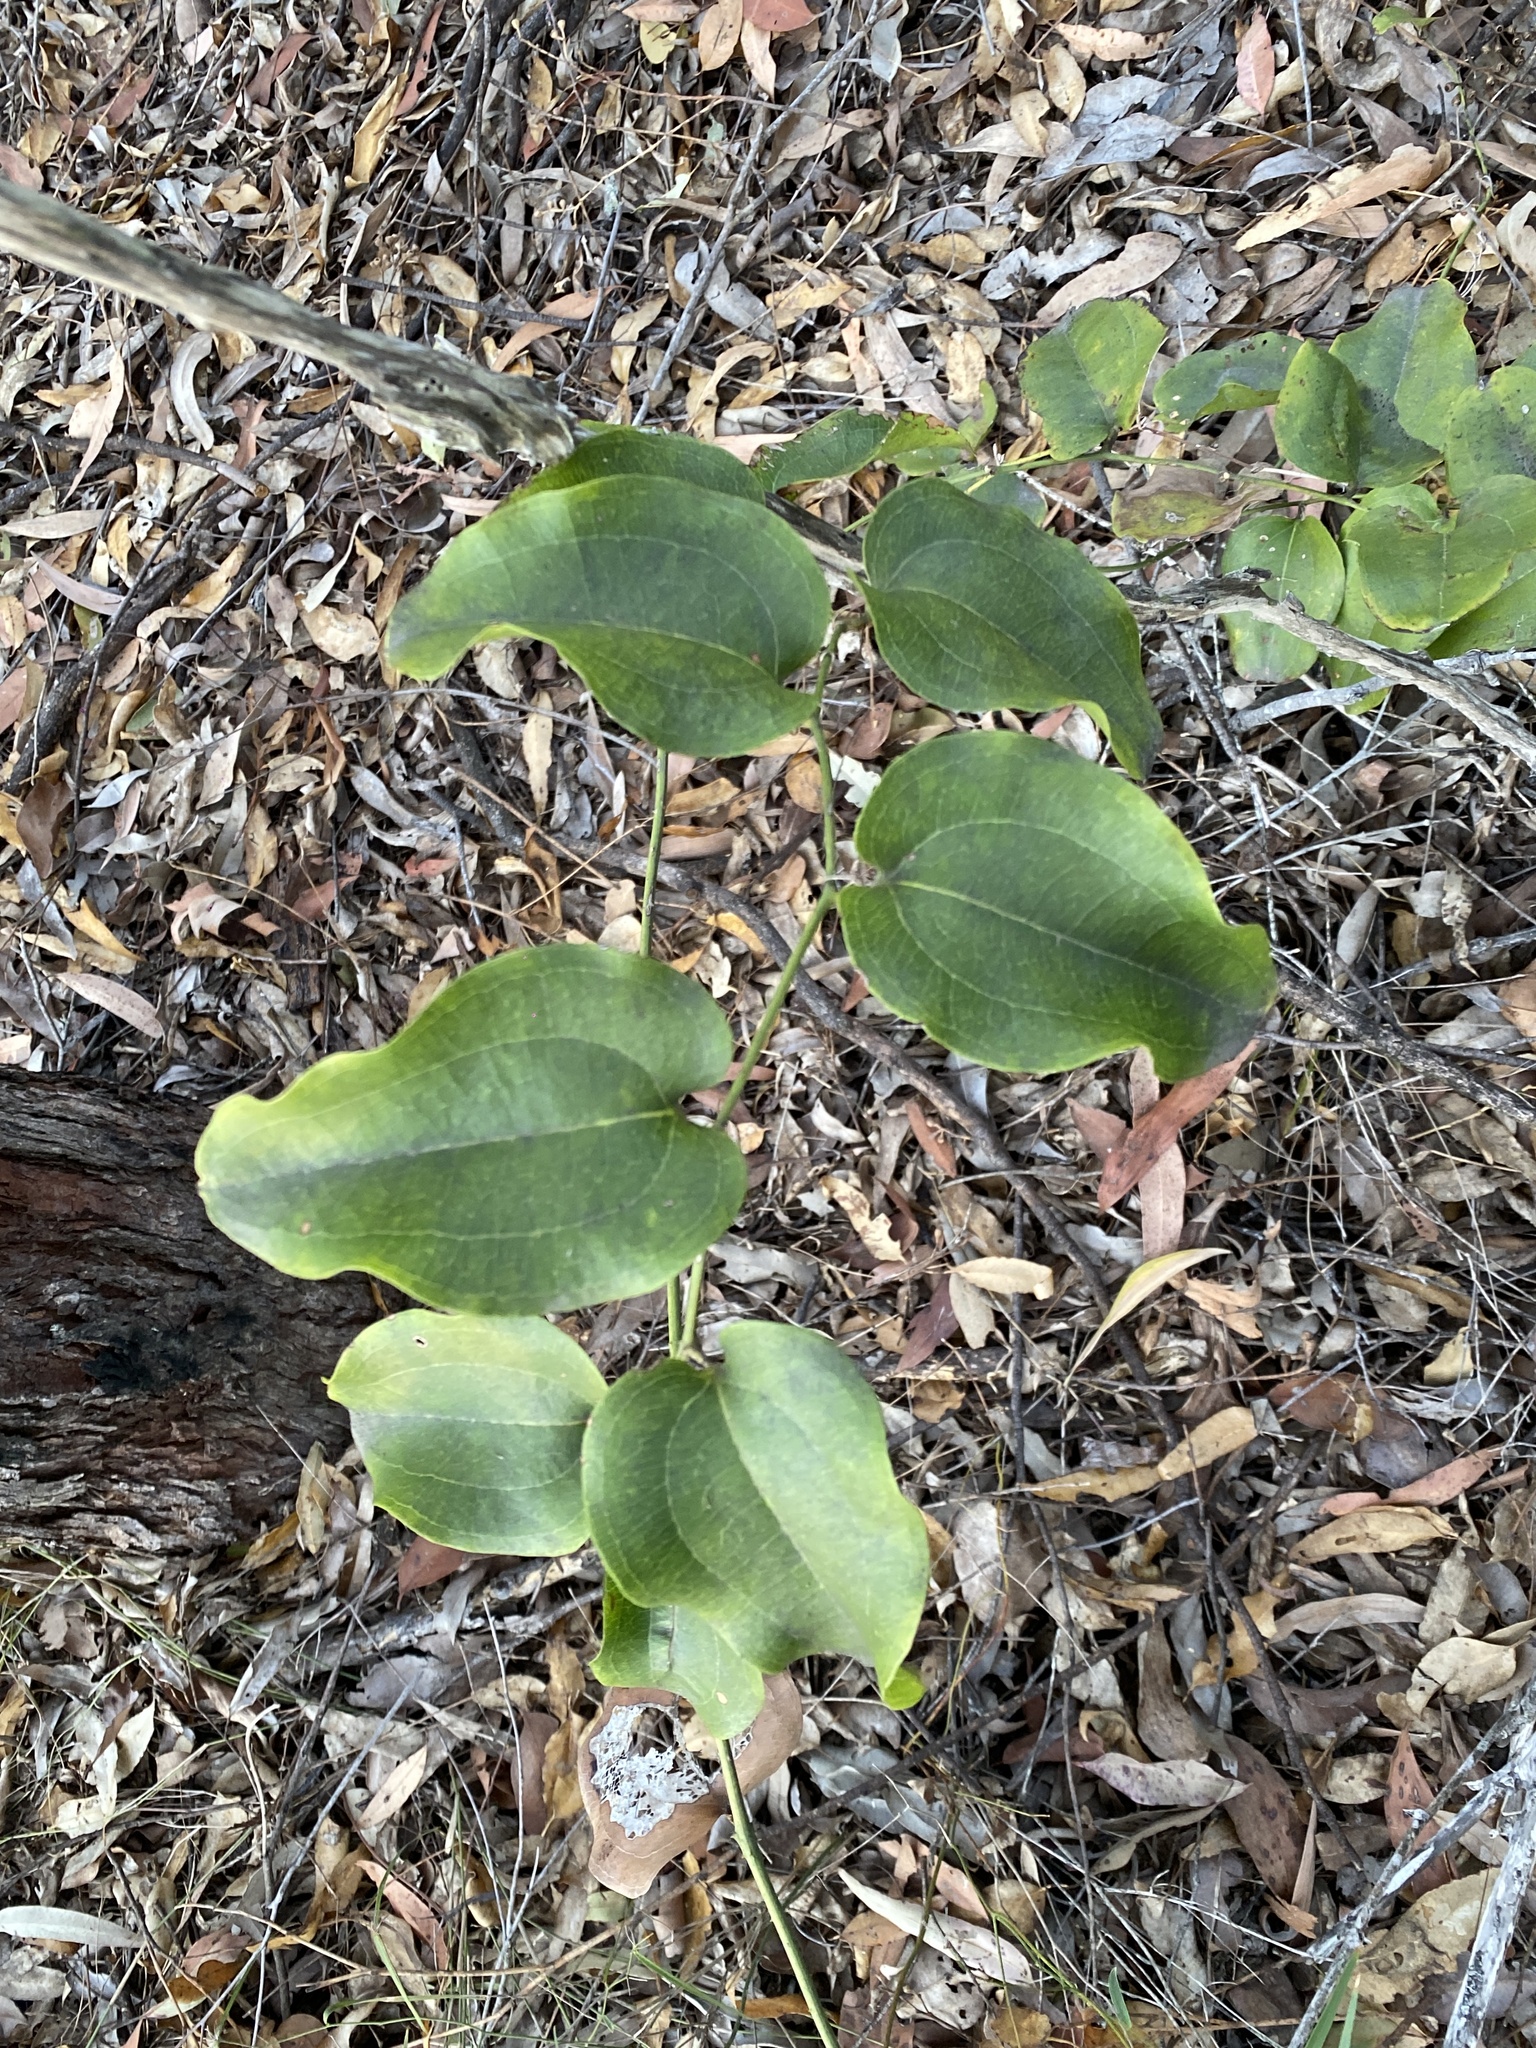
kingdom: Plantae
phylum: Tracheophyta
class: Liliopsida
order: Liliales
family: Smilacaceae
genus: Smilax
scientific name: Smilax australis
